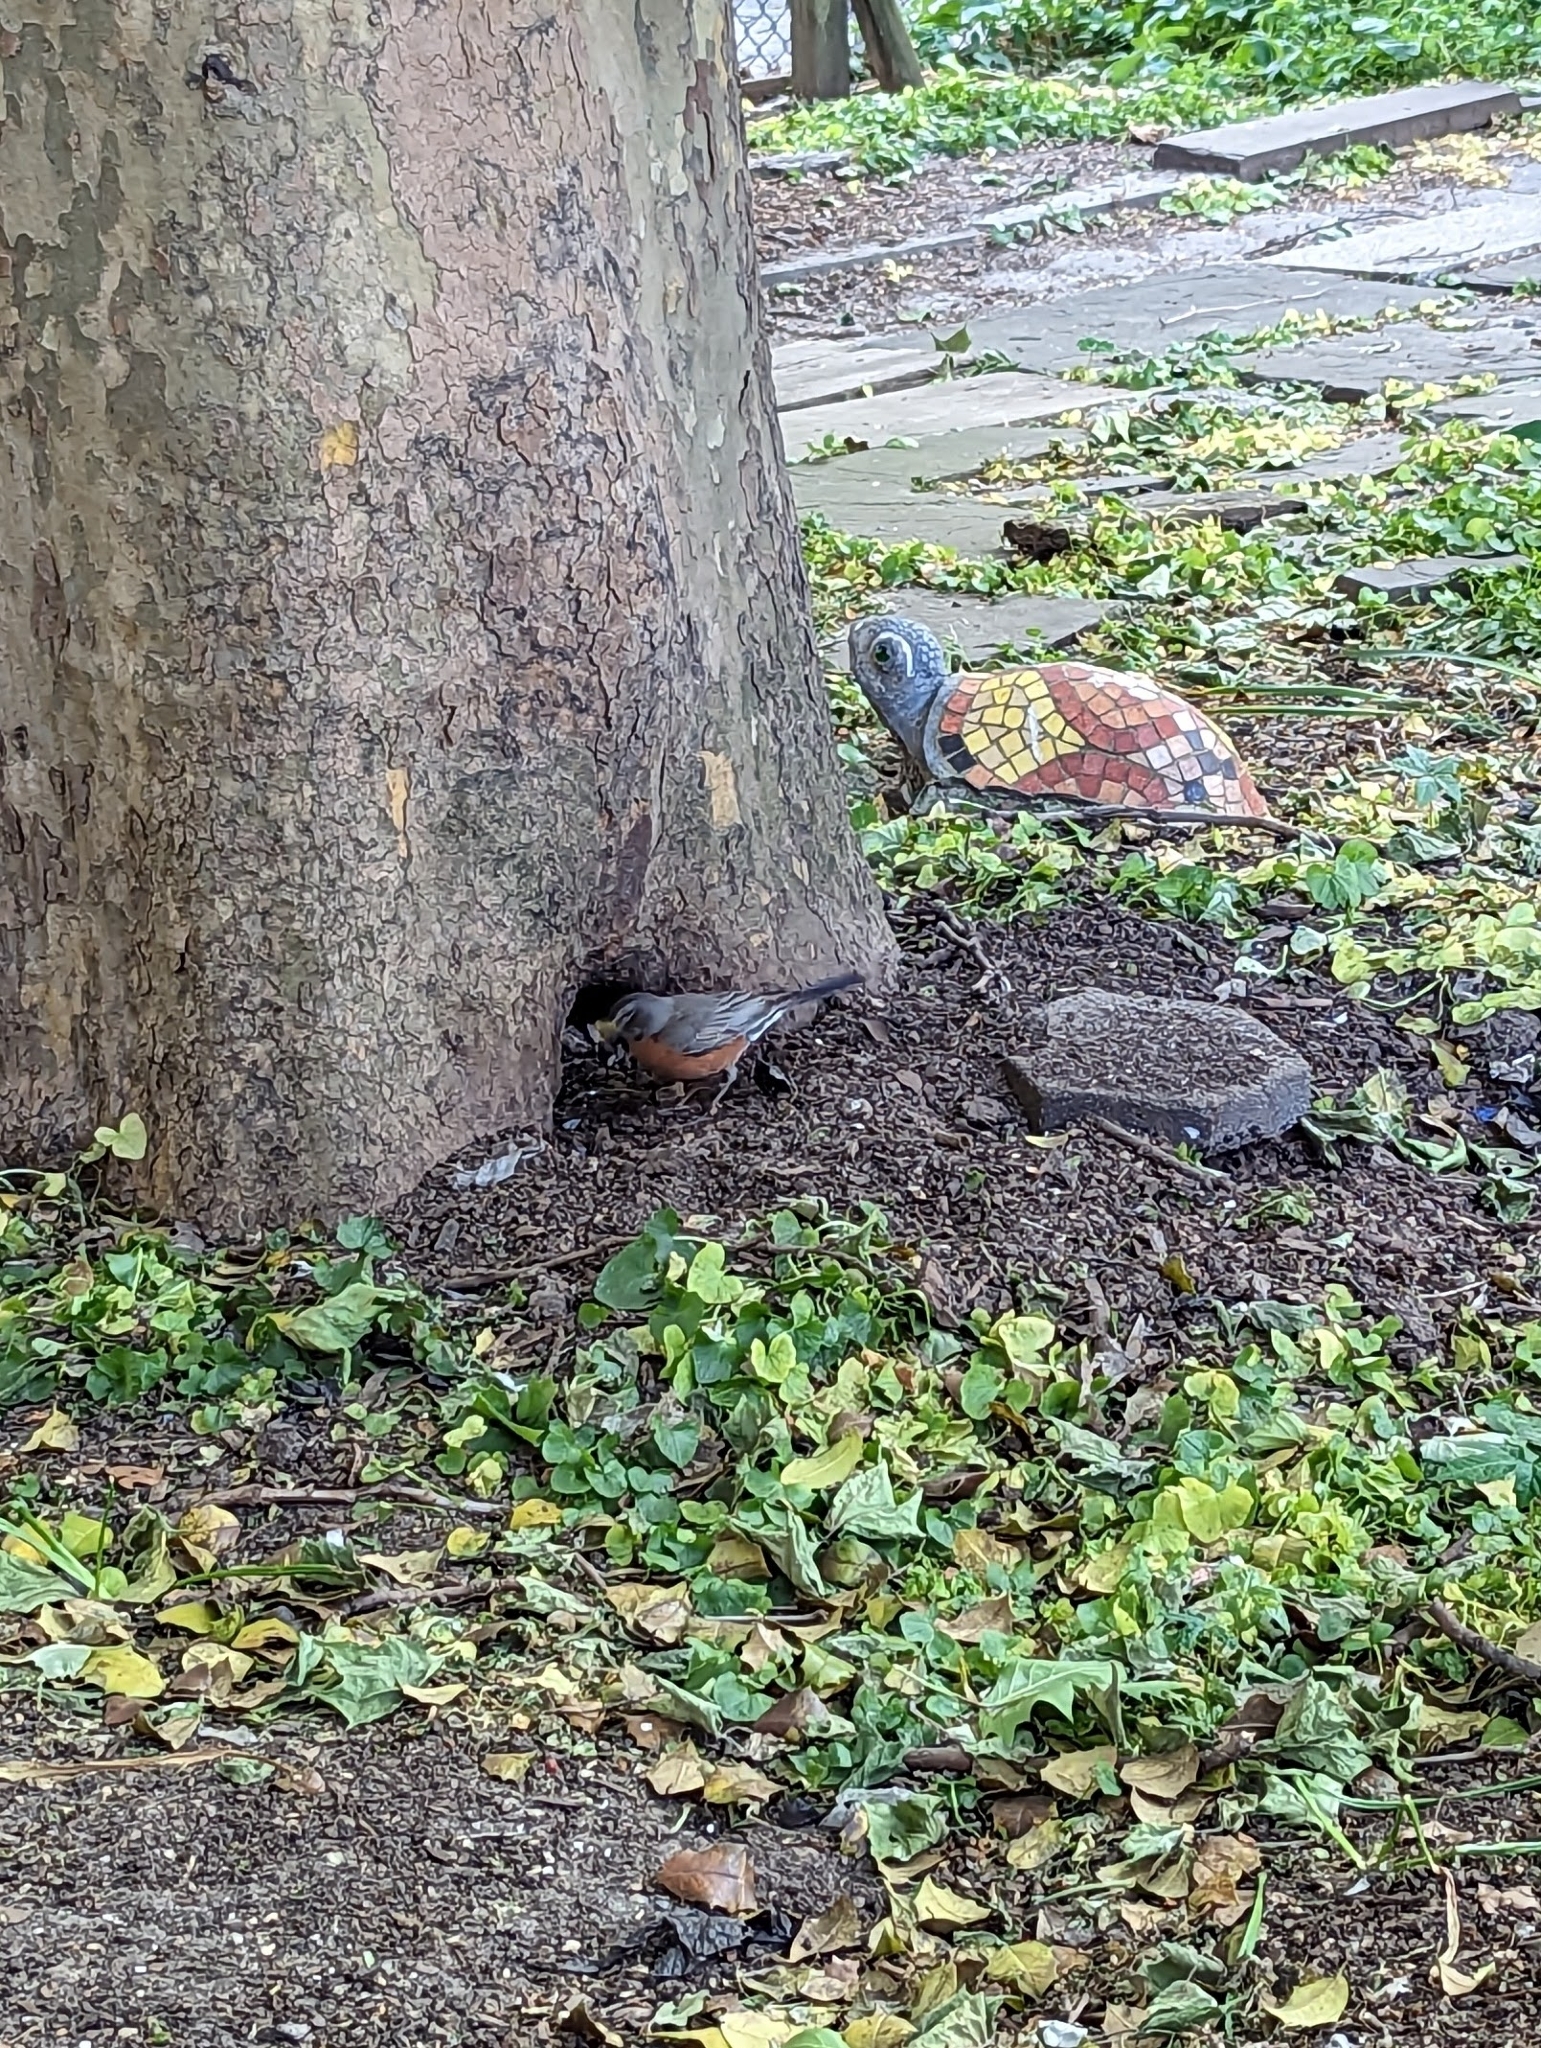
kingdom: Animalia
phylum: Chordata
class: Aves
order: Passeriformes
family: Turdidae
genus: Turdus
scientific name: Turdus migratorius
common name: American robin
